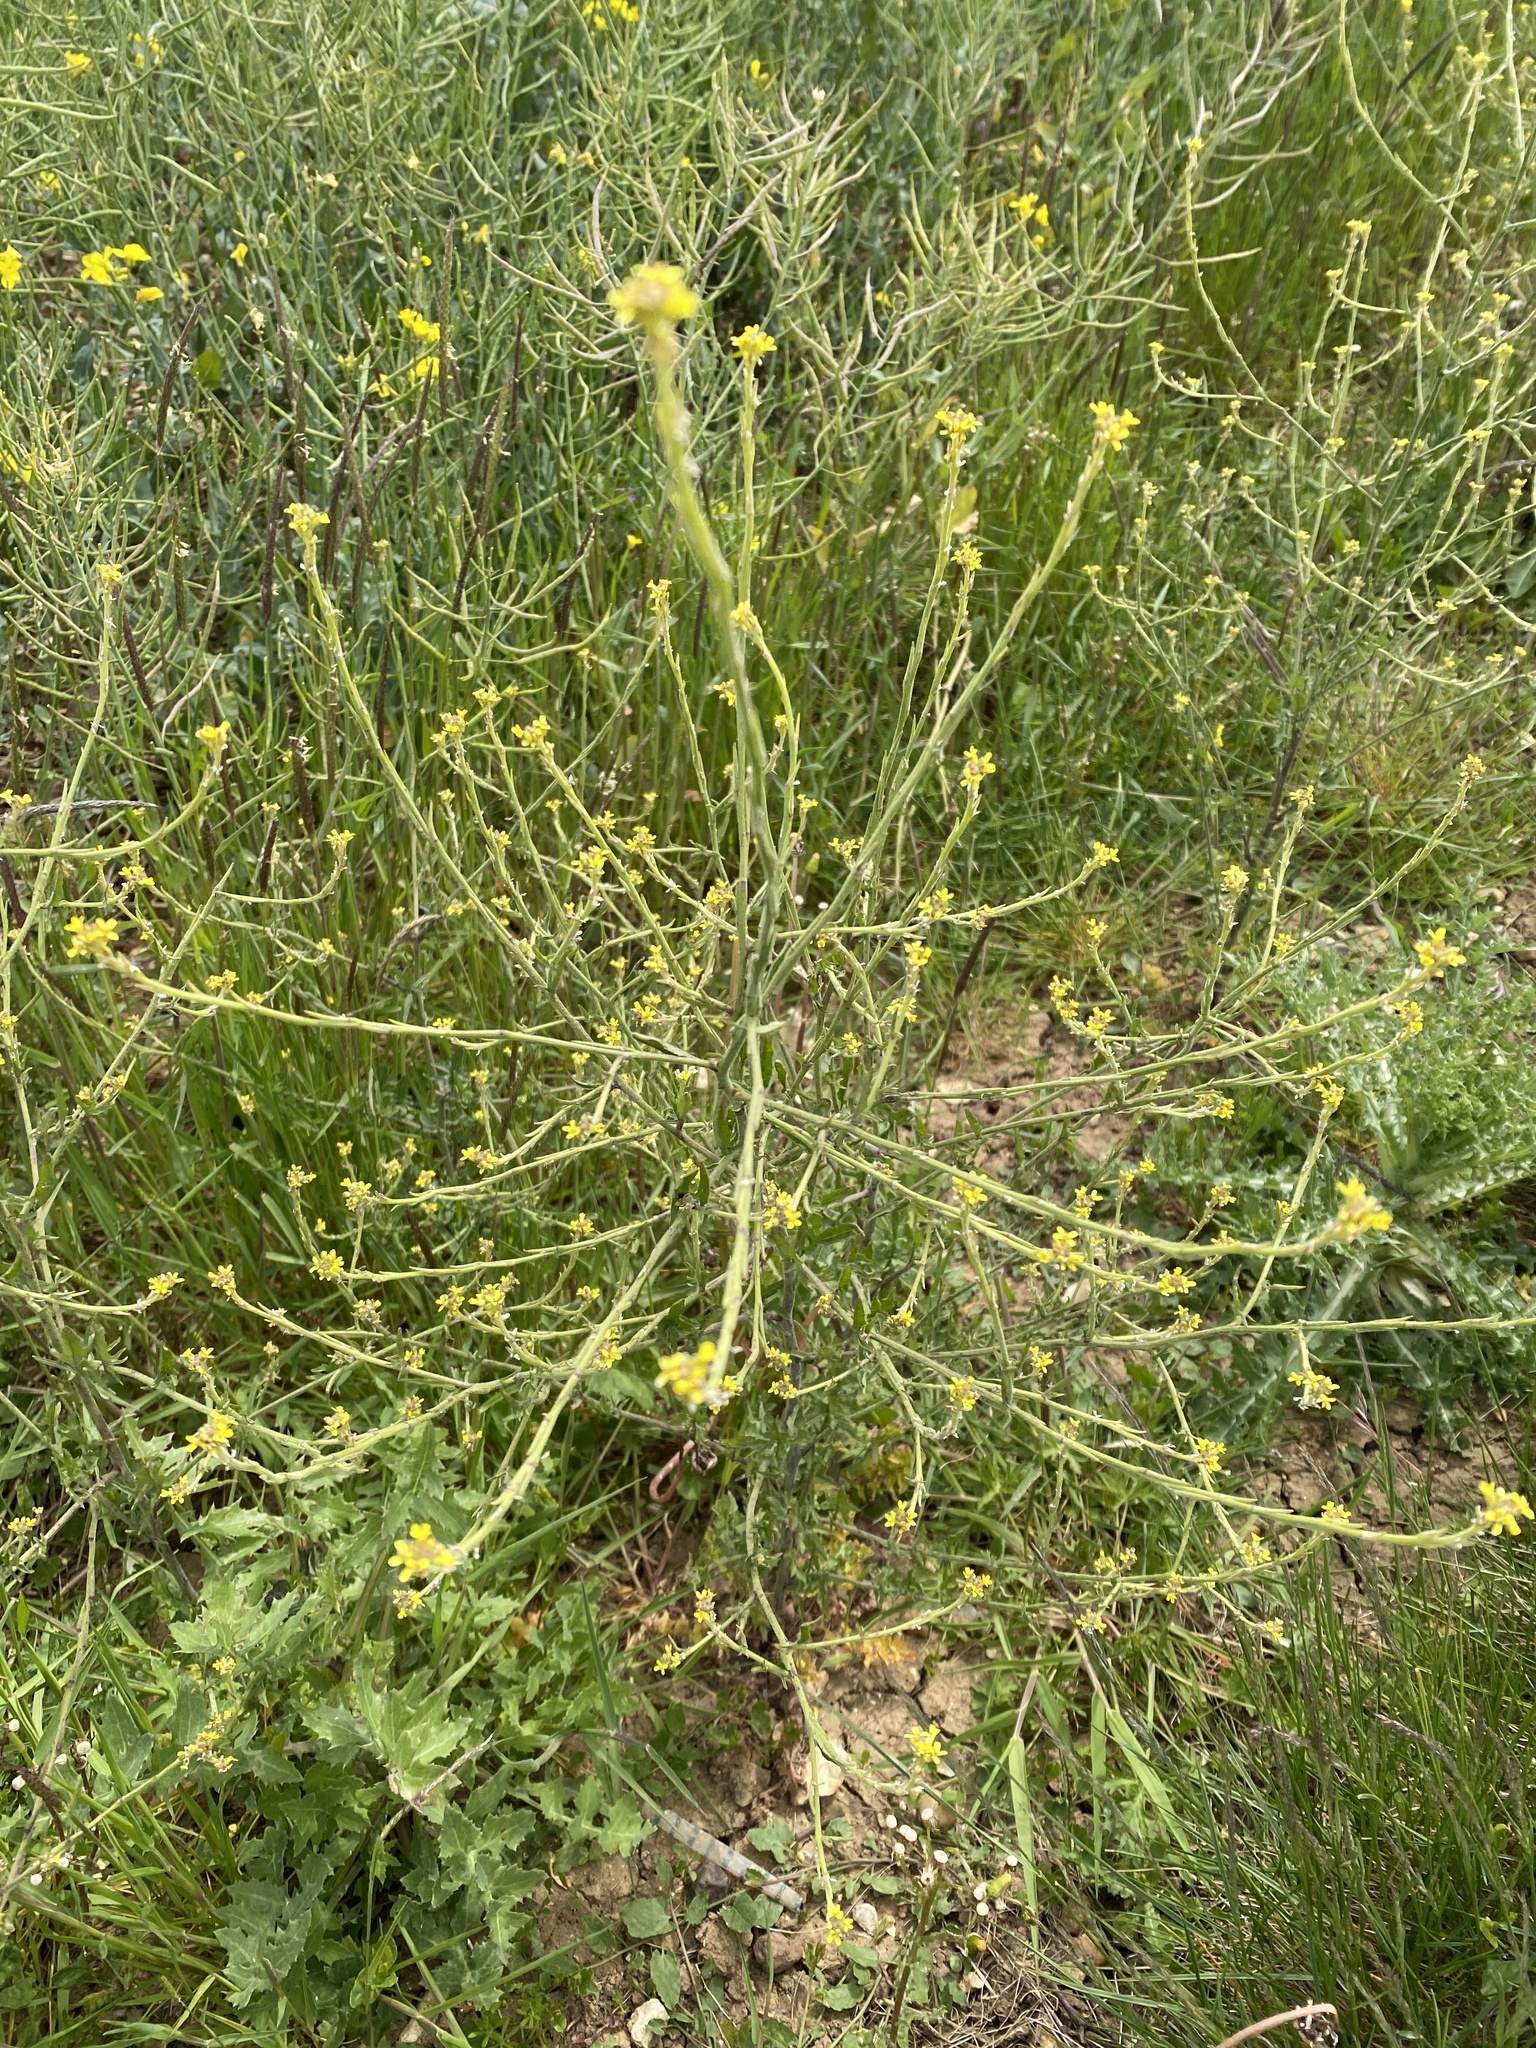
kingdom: Plantae
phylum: Tracheophyta
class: Magnoliopsida
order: Brassicales
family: Brassicaceae
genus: Sisymbrium
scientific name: Sisymbrium officinale
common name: Hedge mustard
